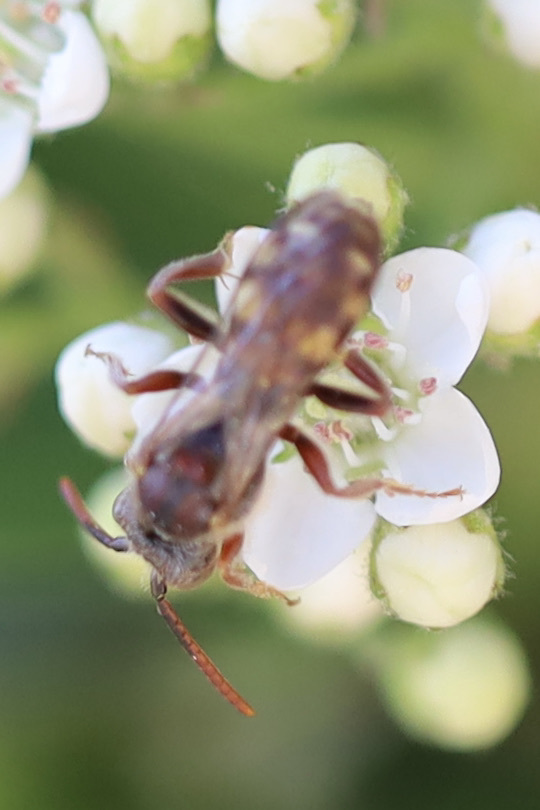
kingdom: Animalia
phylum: Arthropoda
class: Insecta
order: Hymenoptera
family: Apidae
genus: Nomada
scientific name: Nomada
